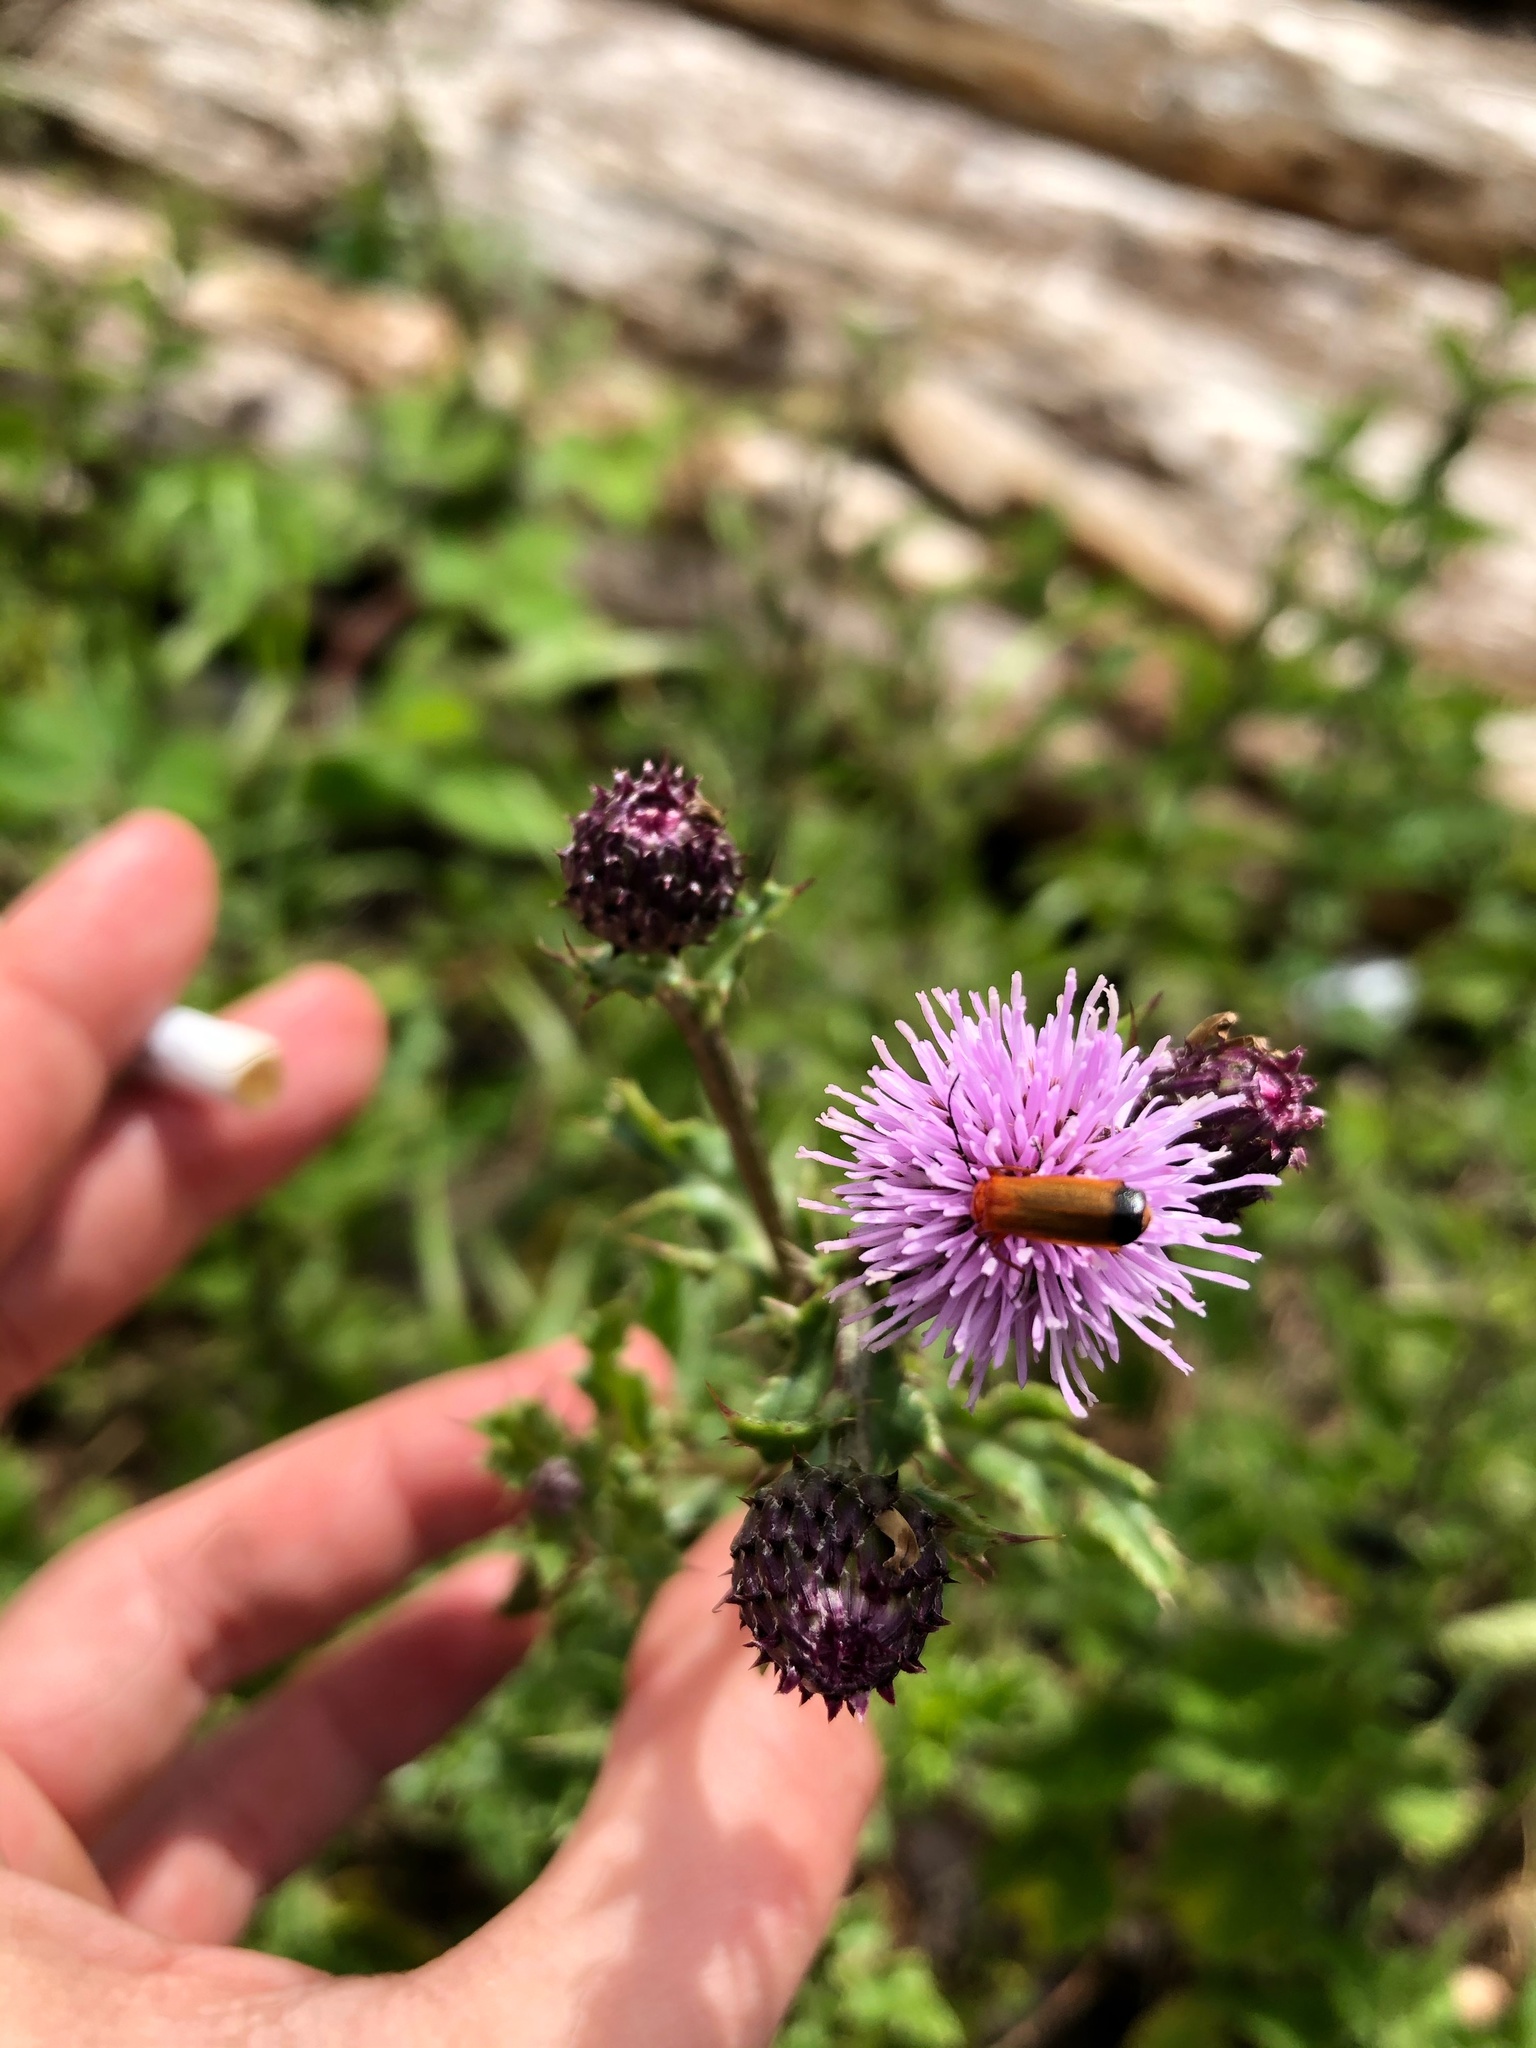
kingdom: Animalia
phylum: Arthropoda
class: Insecta
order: Coleoptera
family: Cantharidae
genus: Rhagonycha
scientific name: Rhagonycha fulva
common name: Common red soldier beetle
